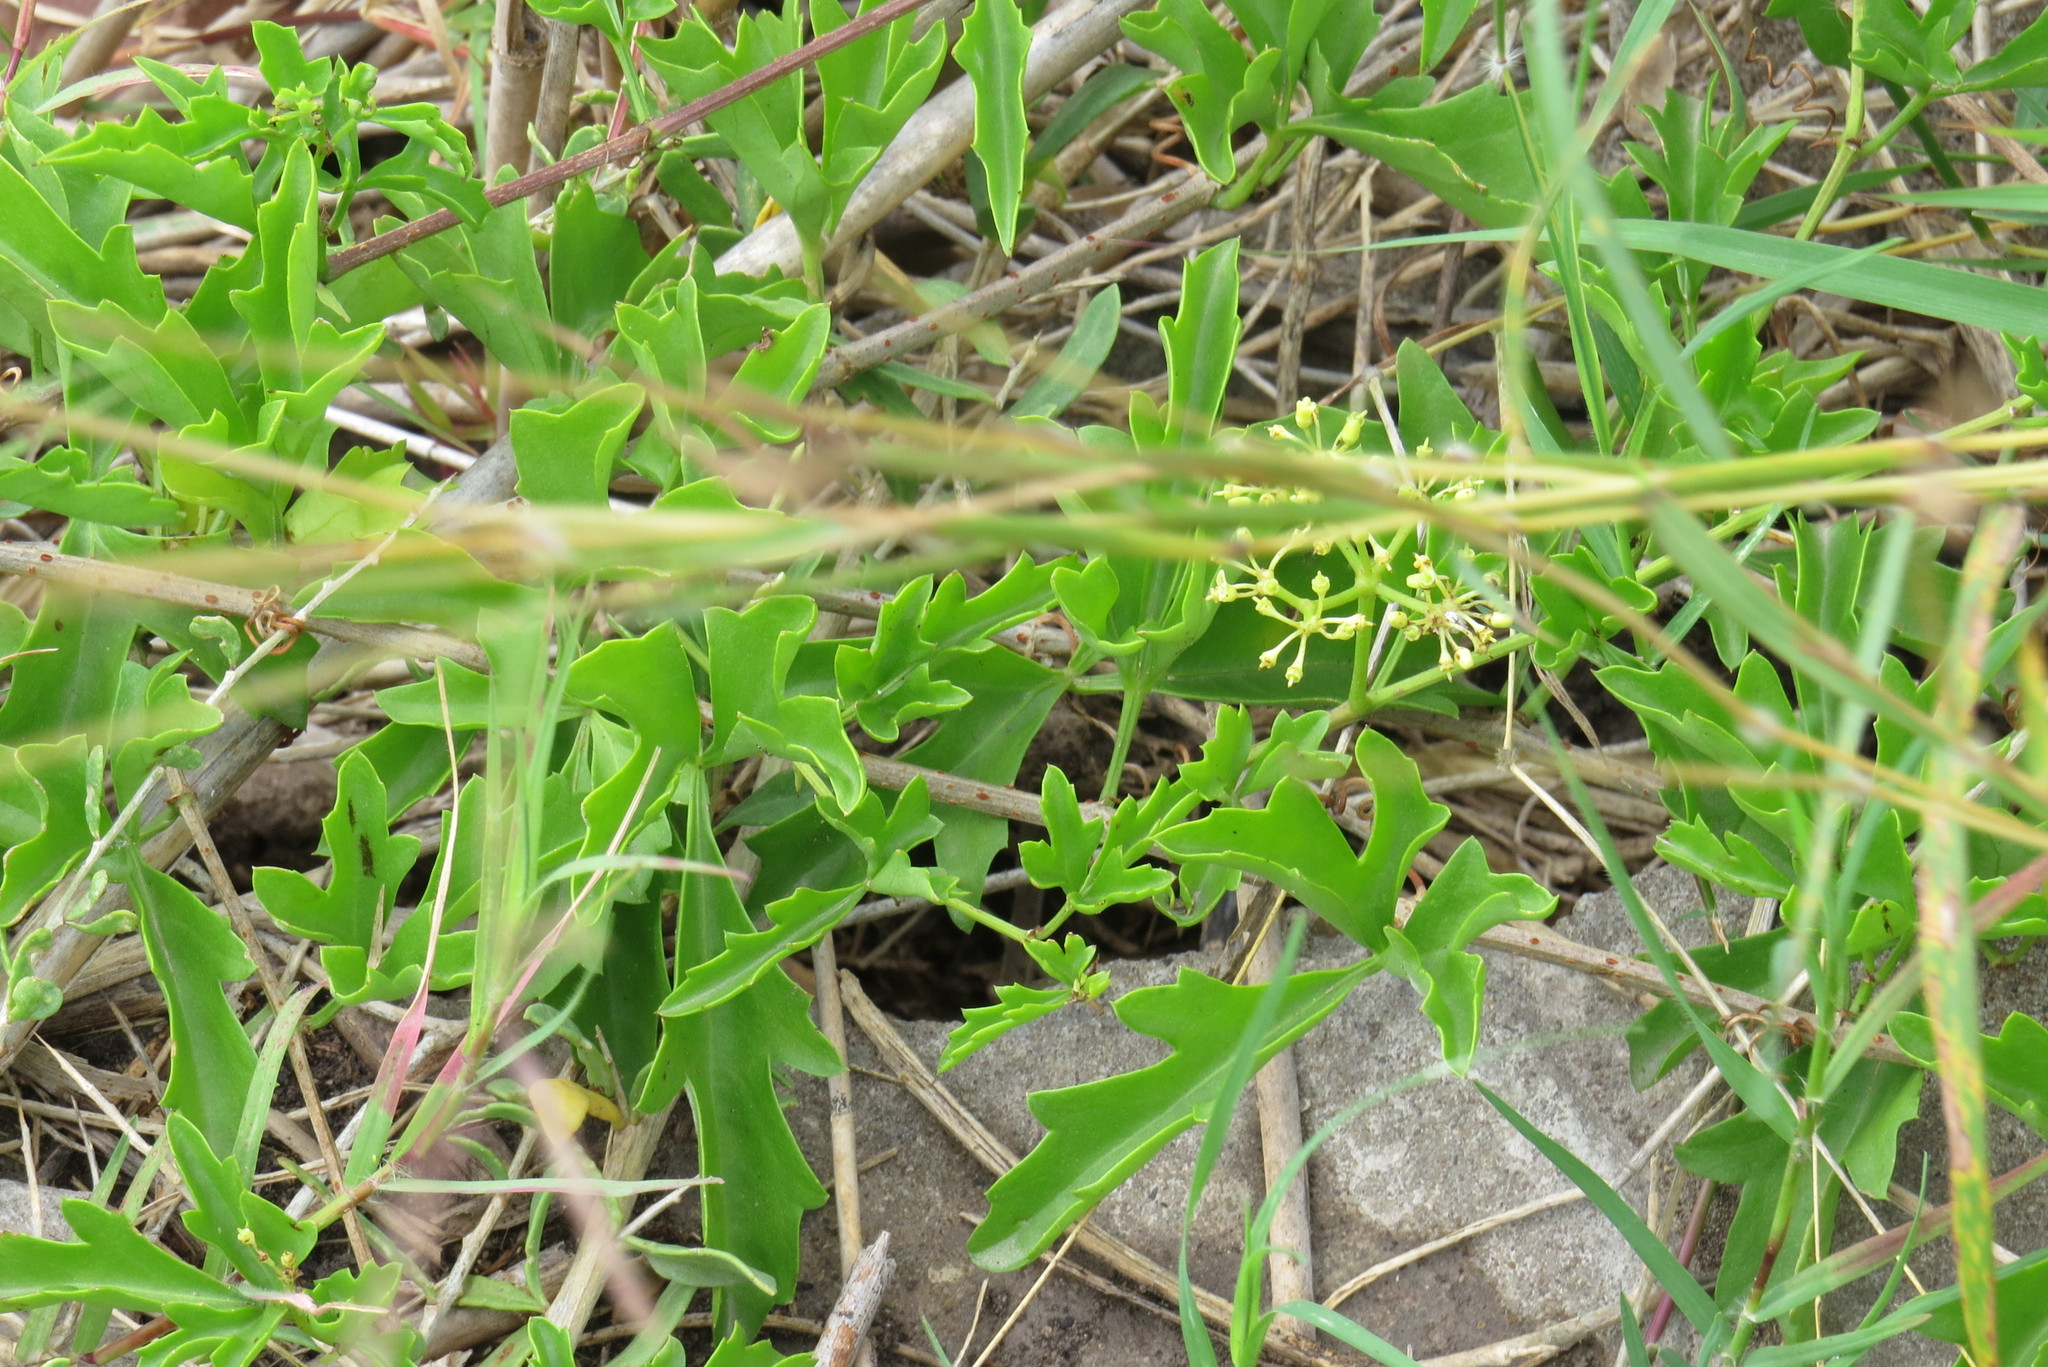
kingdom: Plantae
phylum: Tracheophyta
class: Magnoliopsida
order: Vitales
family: Vitaceae
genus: Cissus
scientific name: Cissus trifoliata
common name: Vine-sorrel
